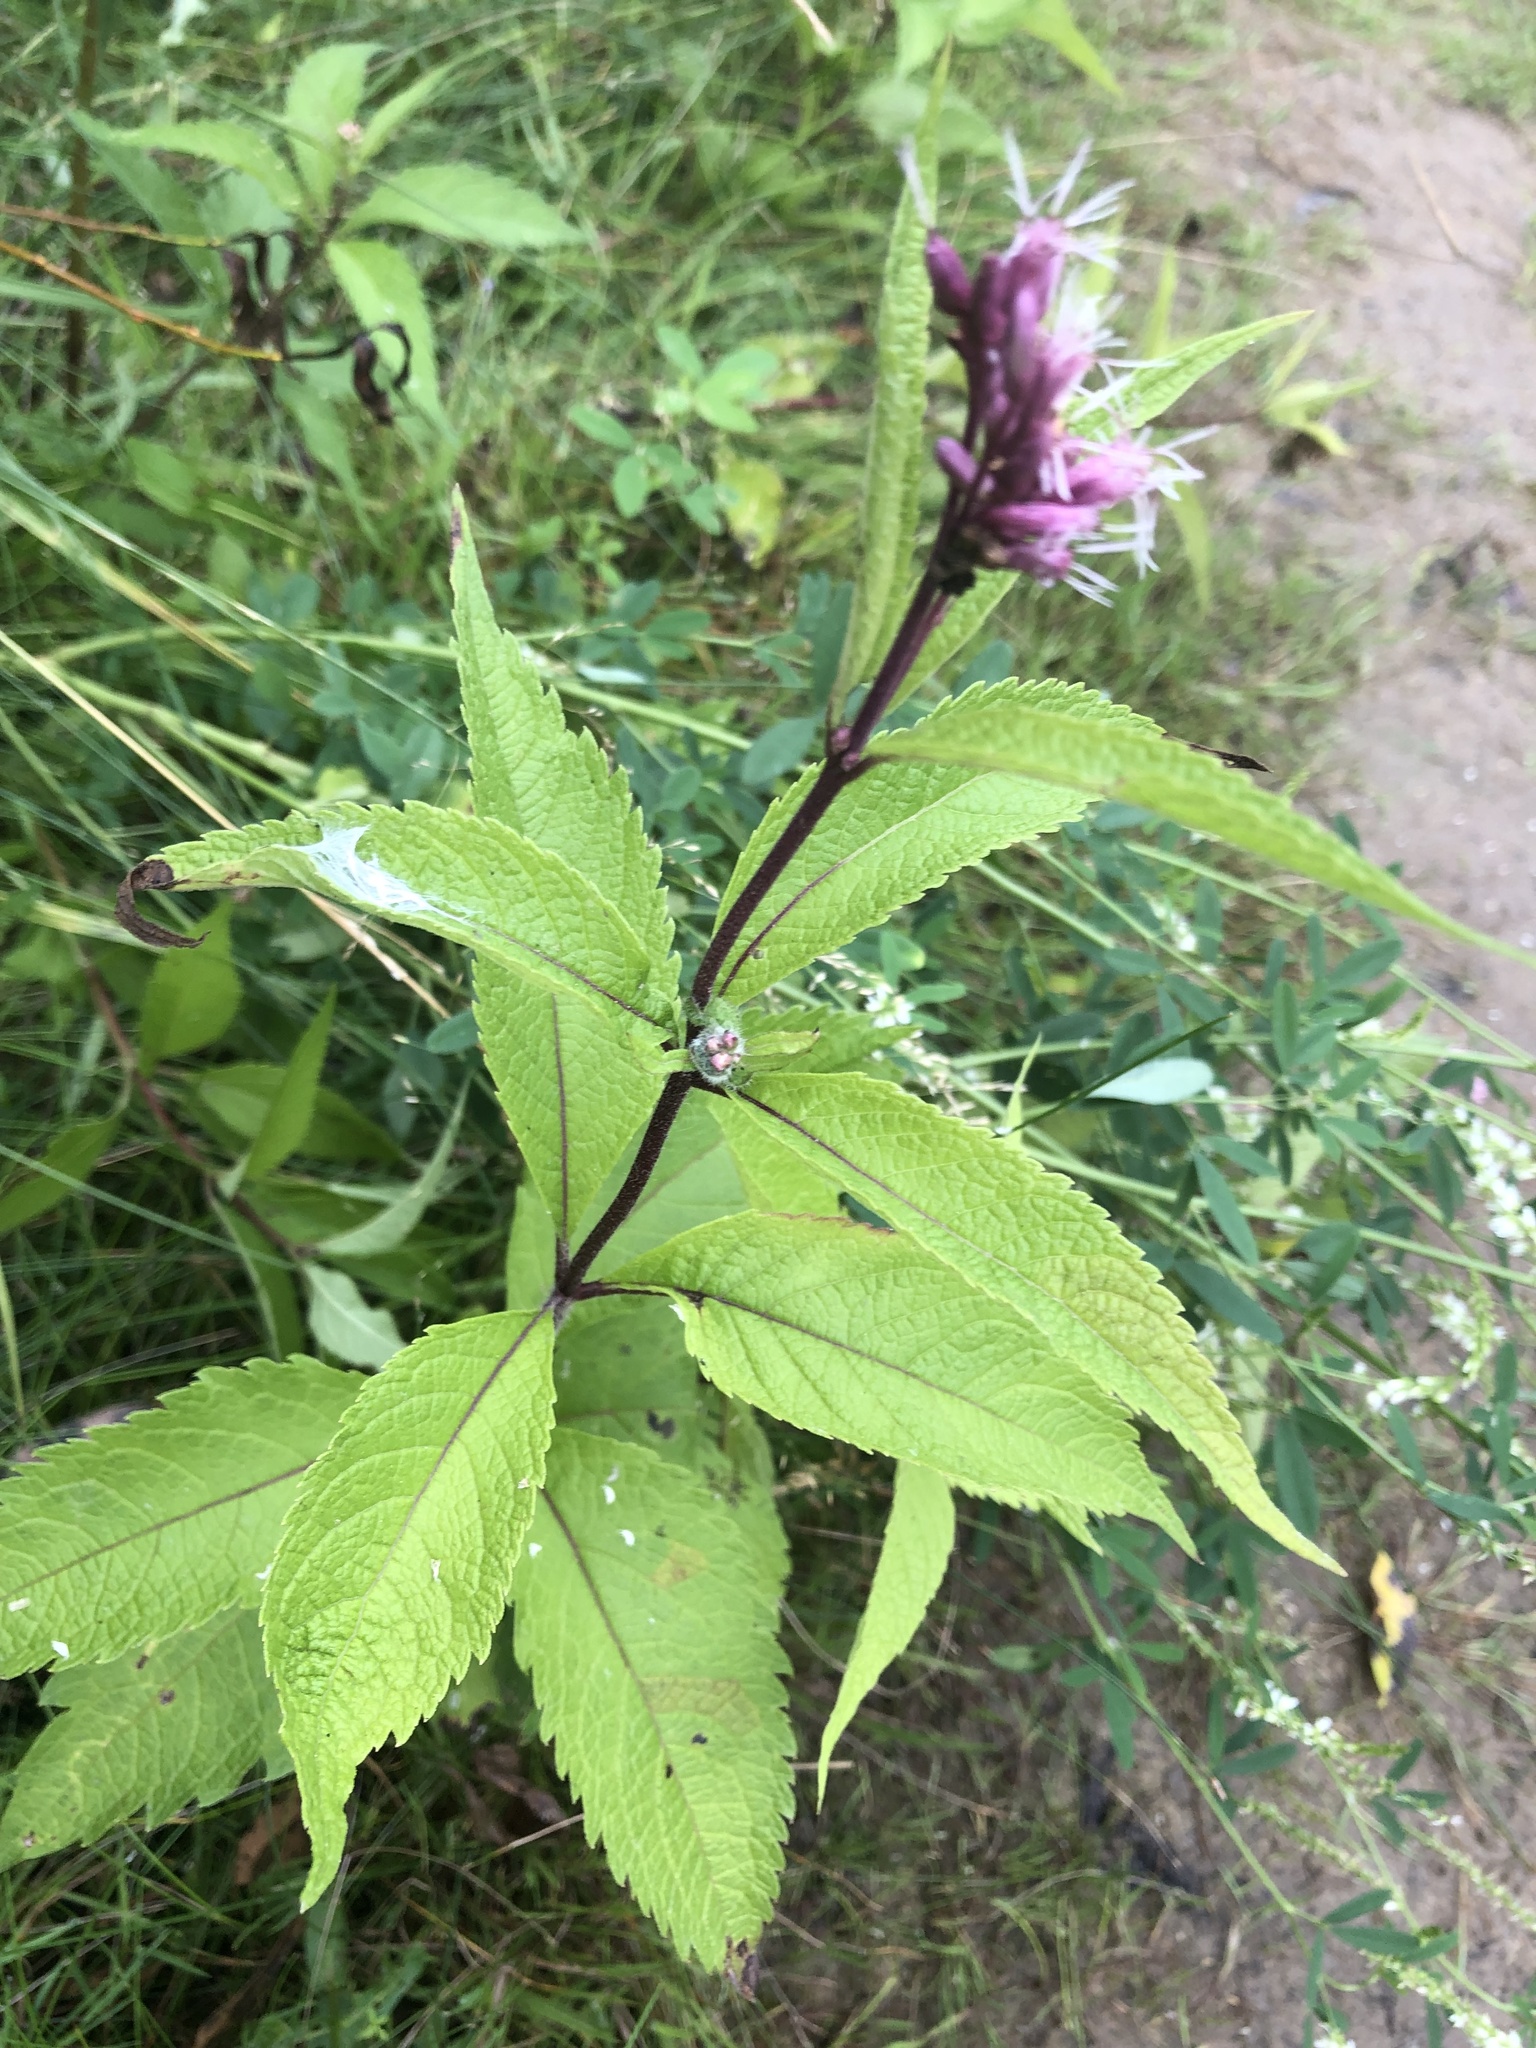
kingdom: Plantae
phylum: Tracheophyta
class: Magnoliopsida
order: Asterales
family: Asteraceae
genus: Eutrochium
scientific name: Eutrochium maculatum
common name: Spotted joe pye weed
